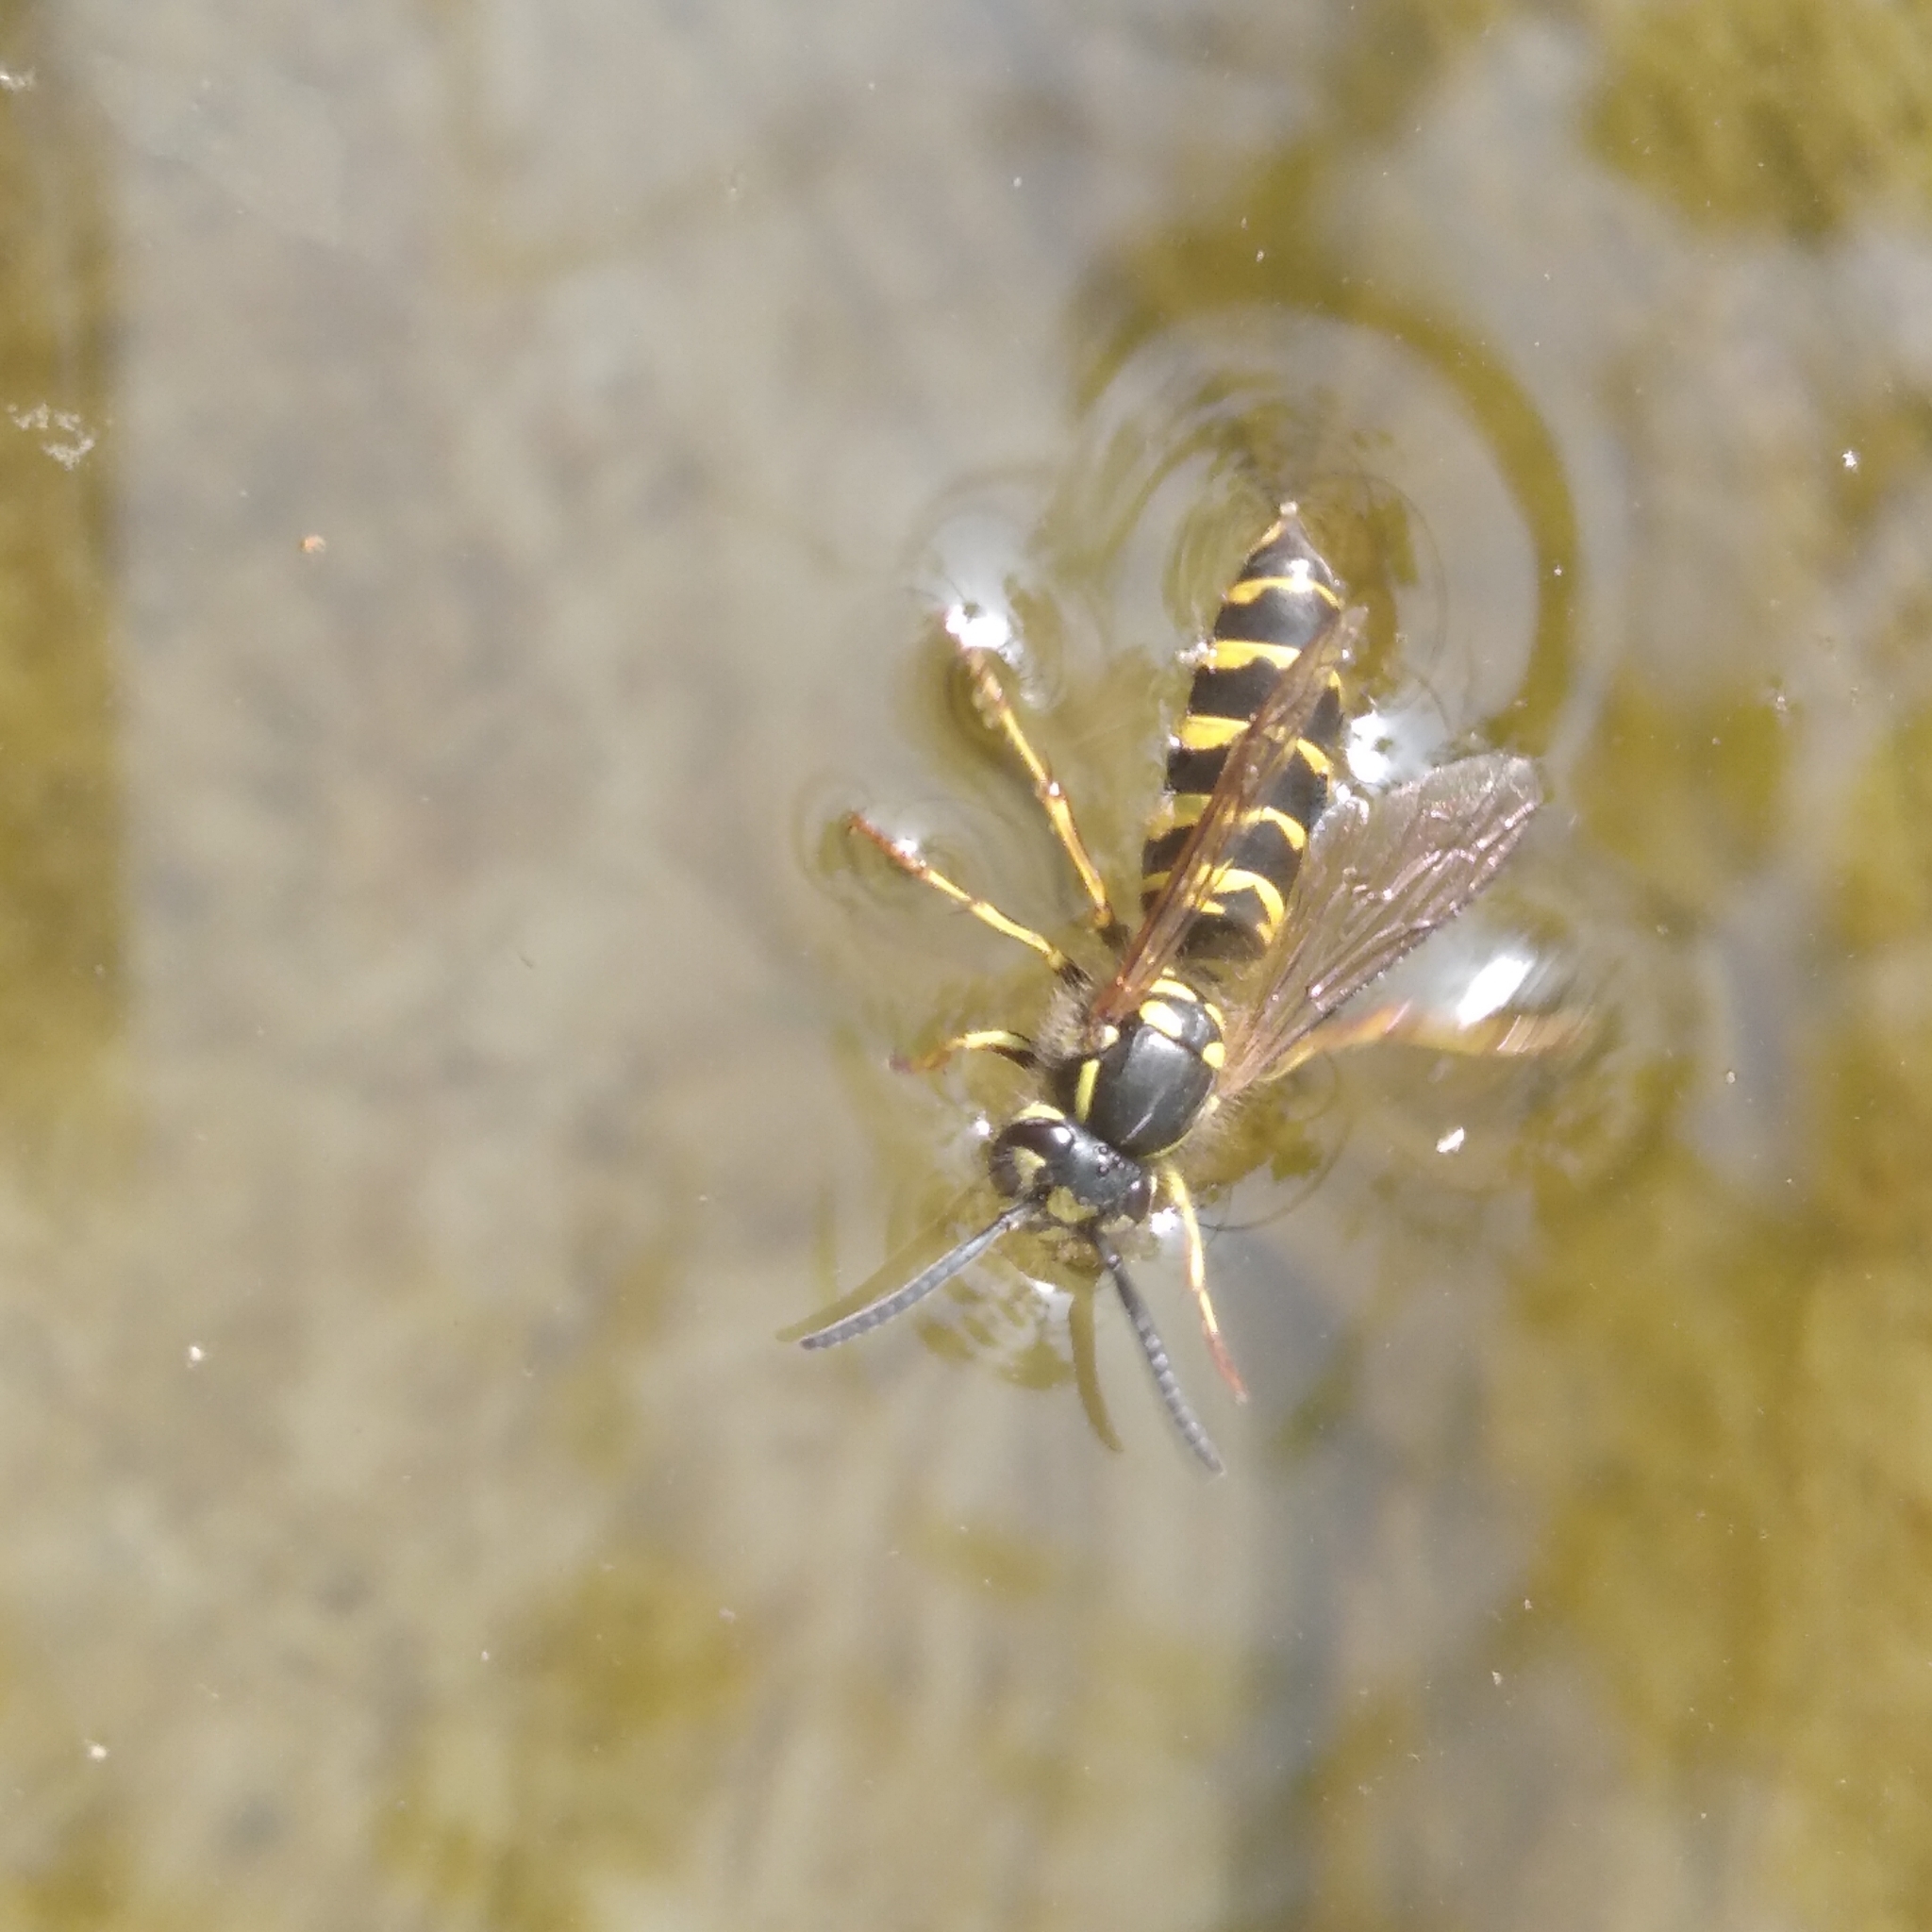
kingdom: Animalia
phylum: Arthropoda
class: Insecta
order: Hymenoptera
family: Vespidae
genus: Vespula
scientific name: Vespula vulgaris
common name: Common wasp
